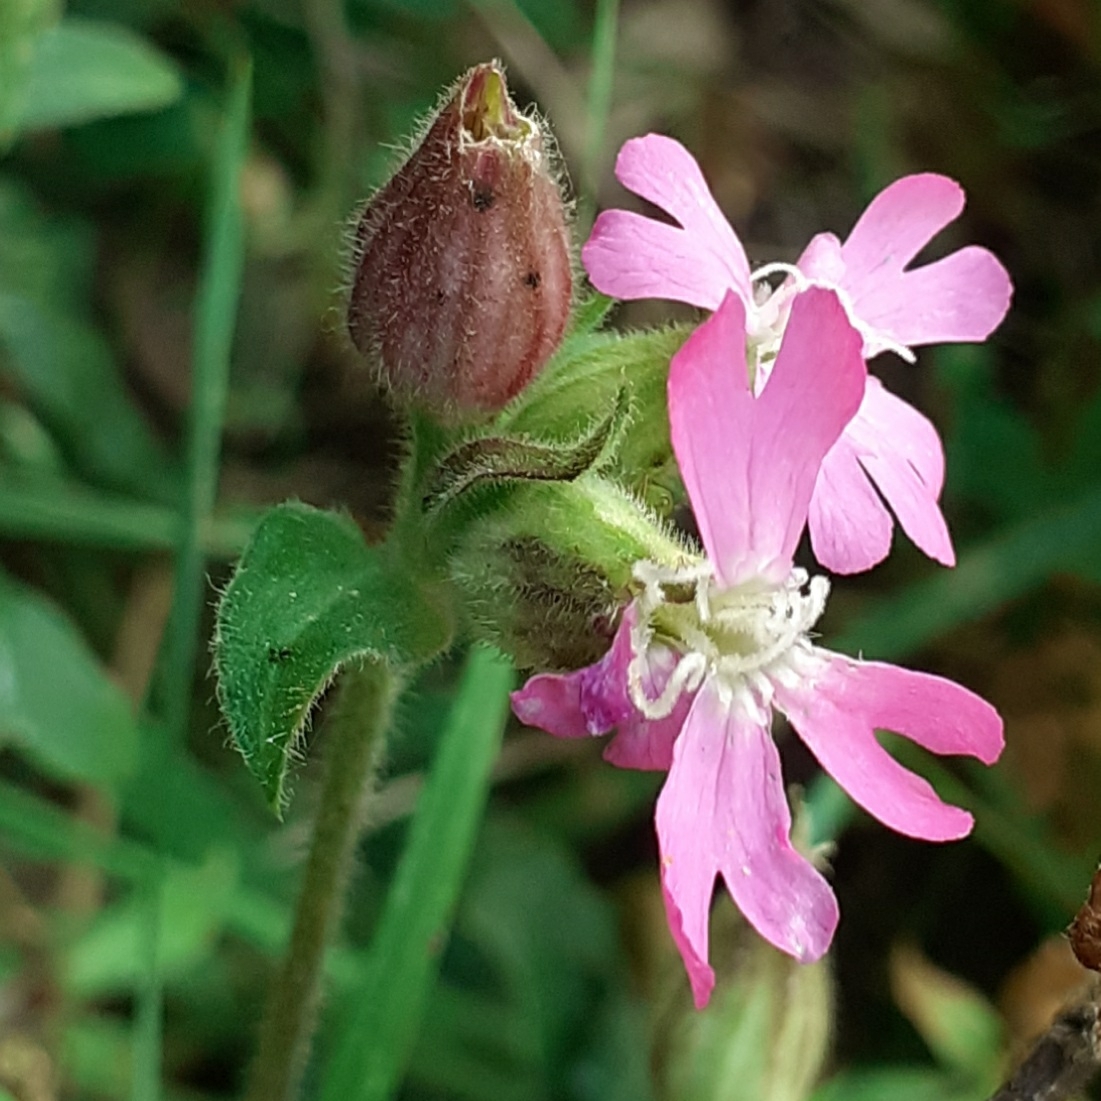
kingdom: Plantae
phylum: Tracheophyta
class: Magnoliopsida
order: Caryophyllales
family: Caryophyllaceae
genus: Silene
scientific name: Silene dioica
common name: Red campion
